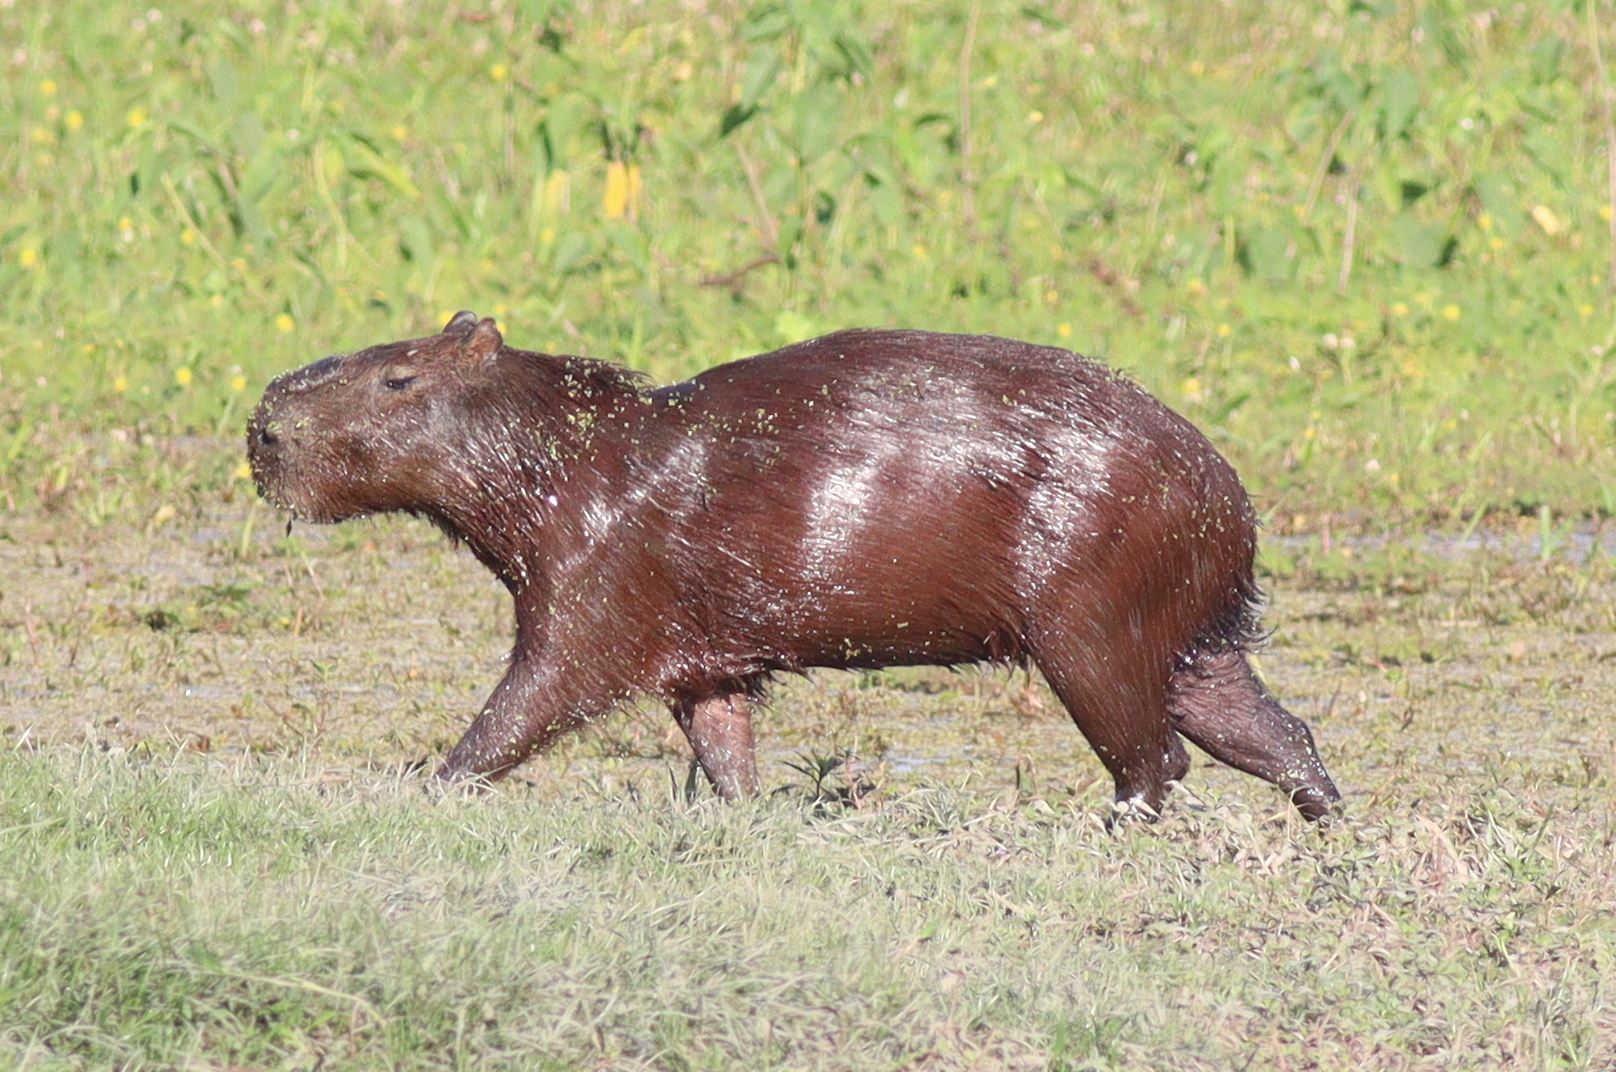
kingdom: Animalia
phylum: Chordata
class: Mammalia
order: Rodentia
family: Caviidae
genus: Hydrochoerus
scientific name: Hydrochoerus hydrochaeris
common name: Capybara
